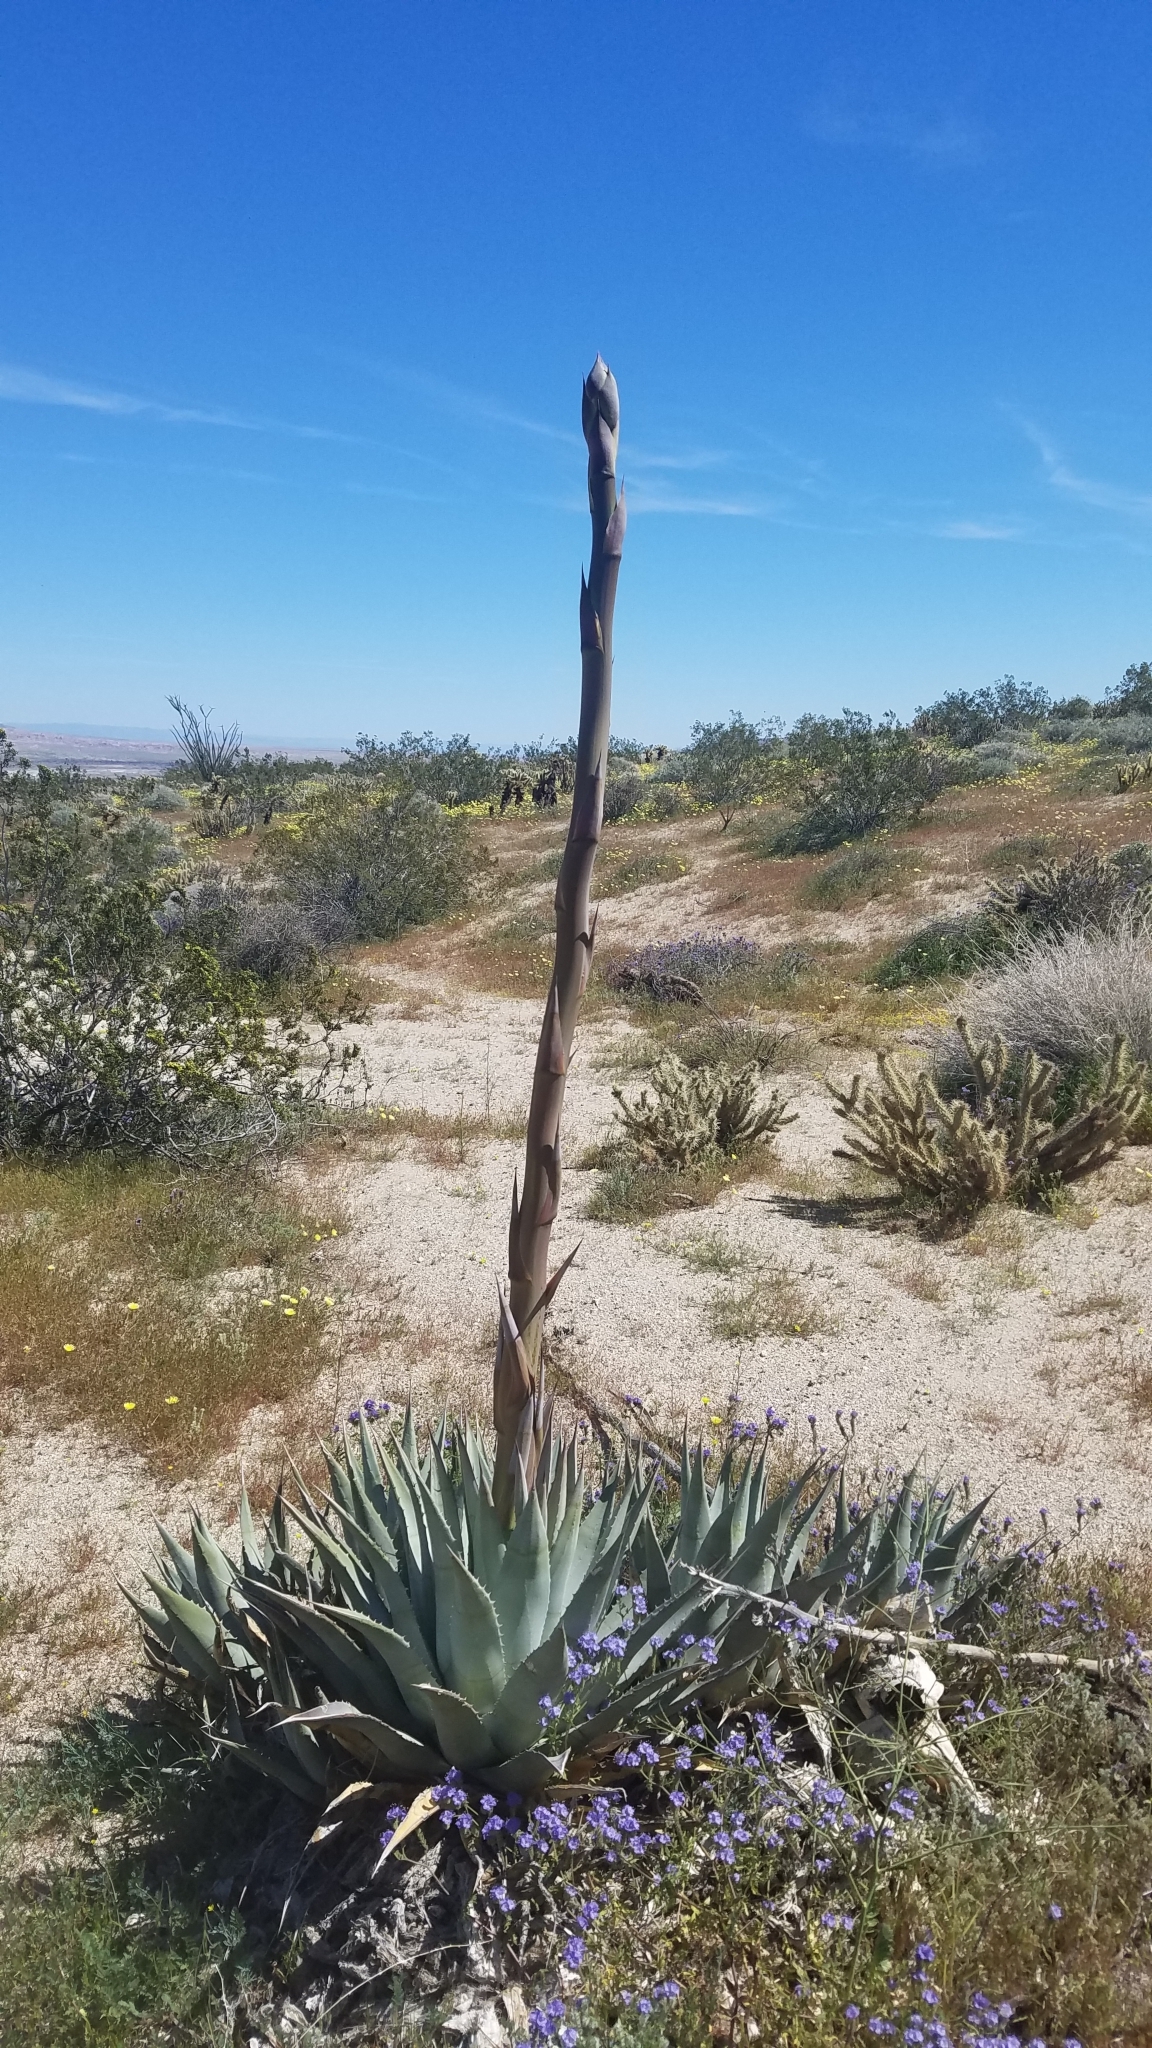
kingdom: Plantae
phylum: Tracheophyta
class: Liliopsida
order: Asparagales
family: Asparagaceae
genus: Agave
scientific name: Agave deserti
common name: Desert agave
